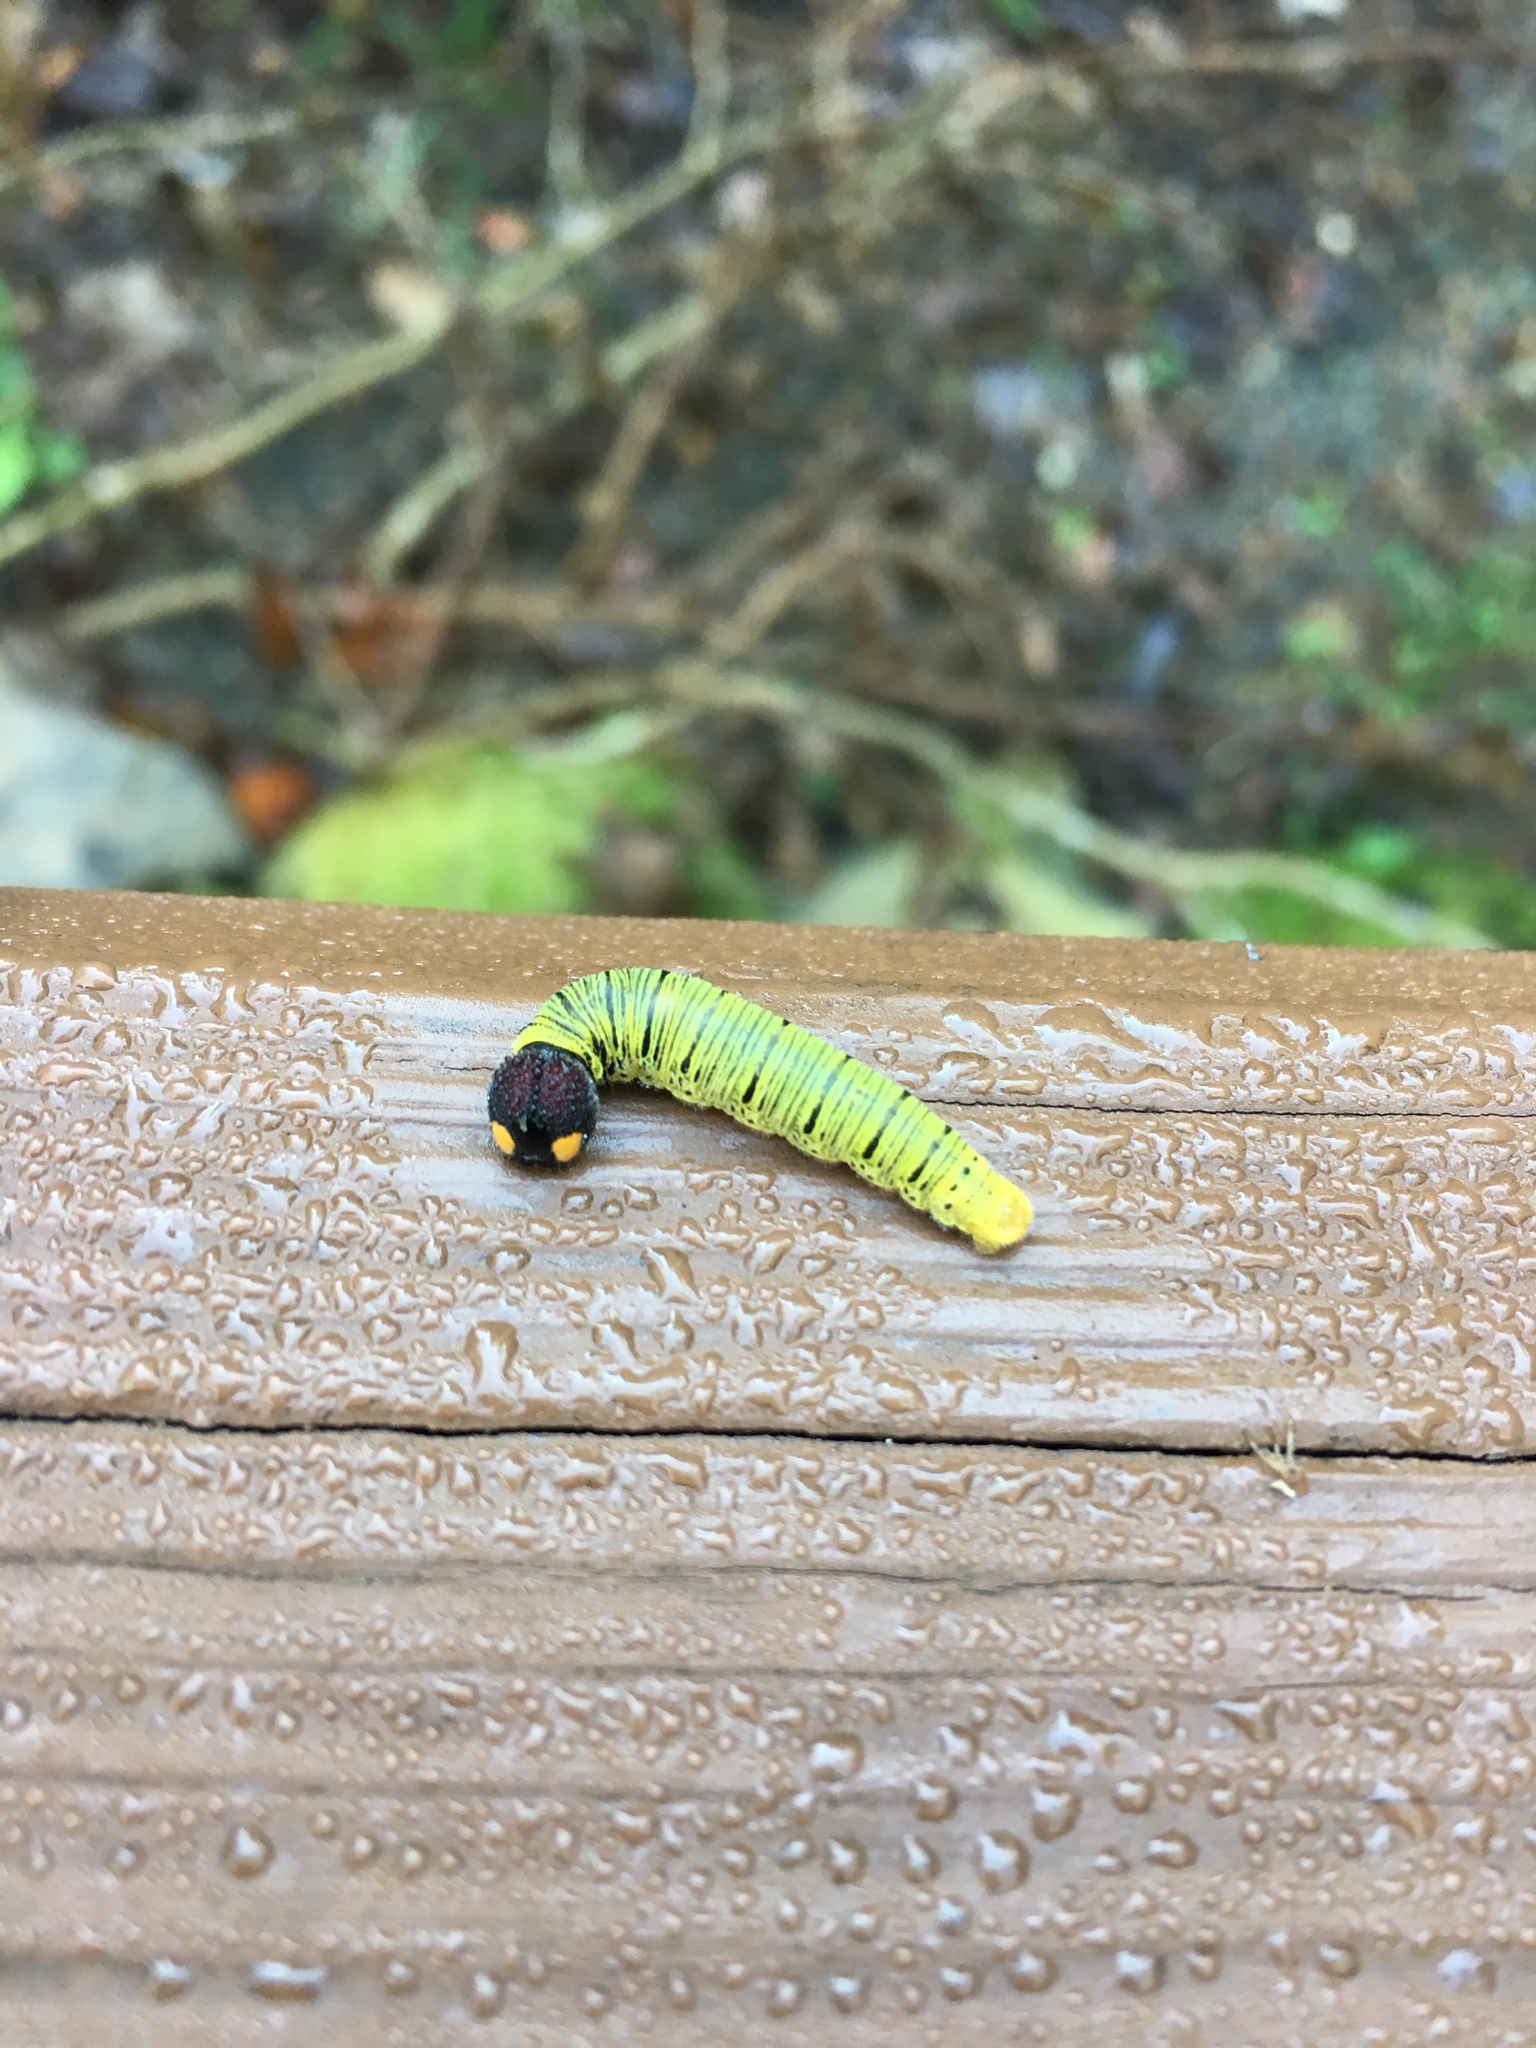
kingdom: Animalia
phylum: Arthropoda
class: Insecta
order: Lepidoptera
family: Hesperiidae
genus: Epargyreus
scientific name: Epargyreus clarus
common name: Silver-spotted skipper
